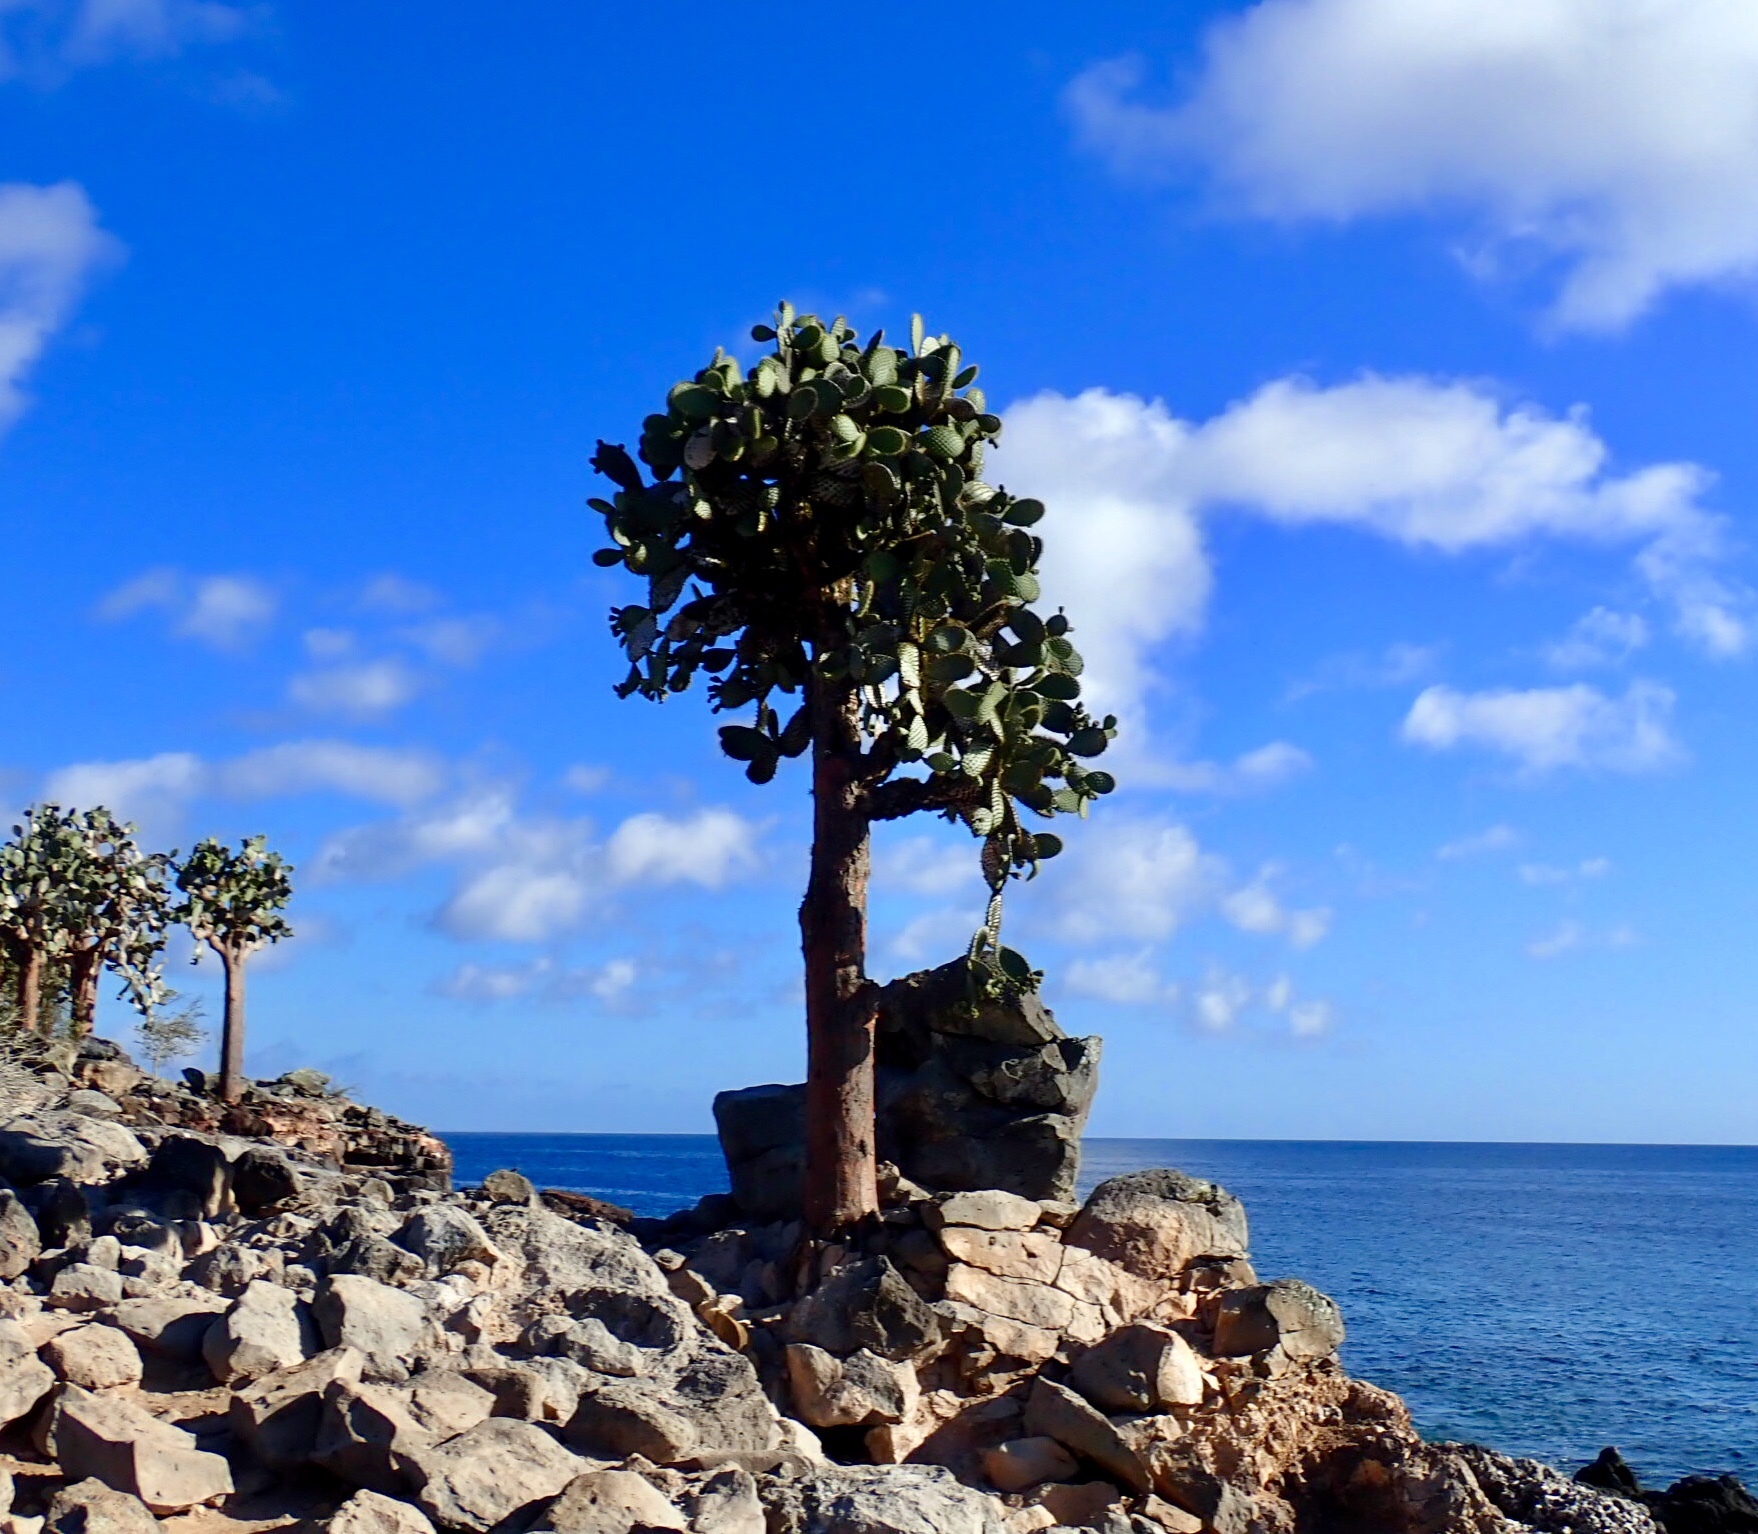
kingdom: Plantae
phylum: Tracheophyta
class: Magnoliopsida
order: Caryophyllales
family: Cactaceae
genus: Opuntia
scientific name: Opuntia galapageia
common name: Galápagos prickly pear
